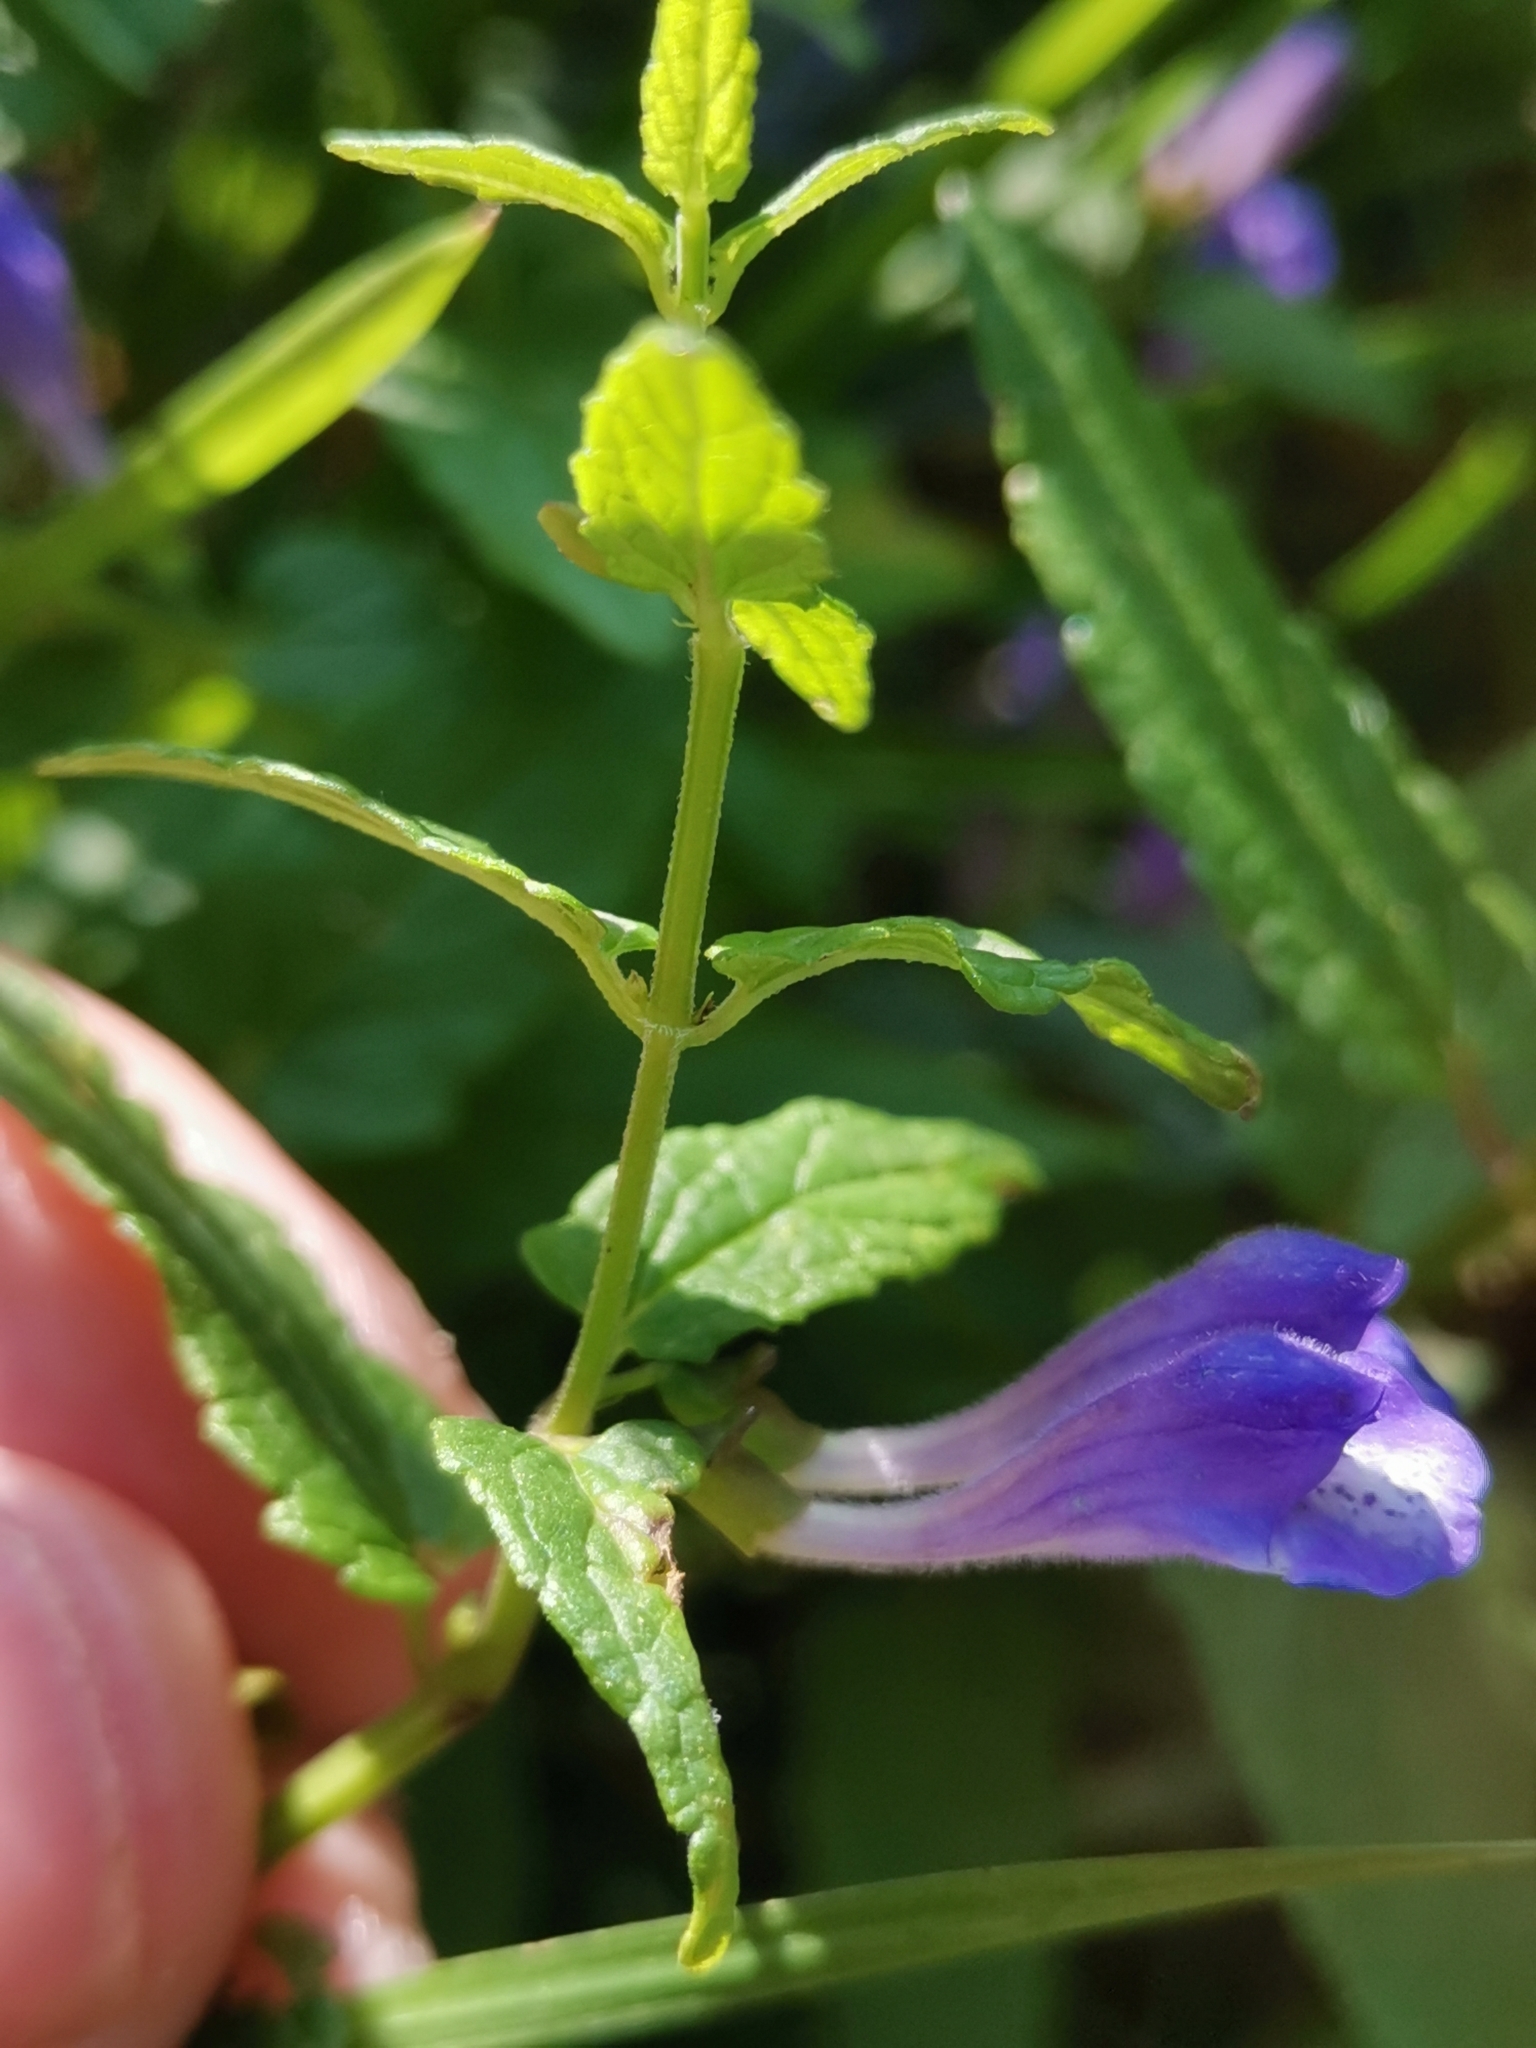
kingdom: Plantae
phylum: Tracheophyta
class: Magnoliopsida
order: Lamiales
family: Lamiaceae
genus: Scutellaria
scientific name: Scutellaria galericulata
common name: Skullcap
